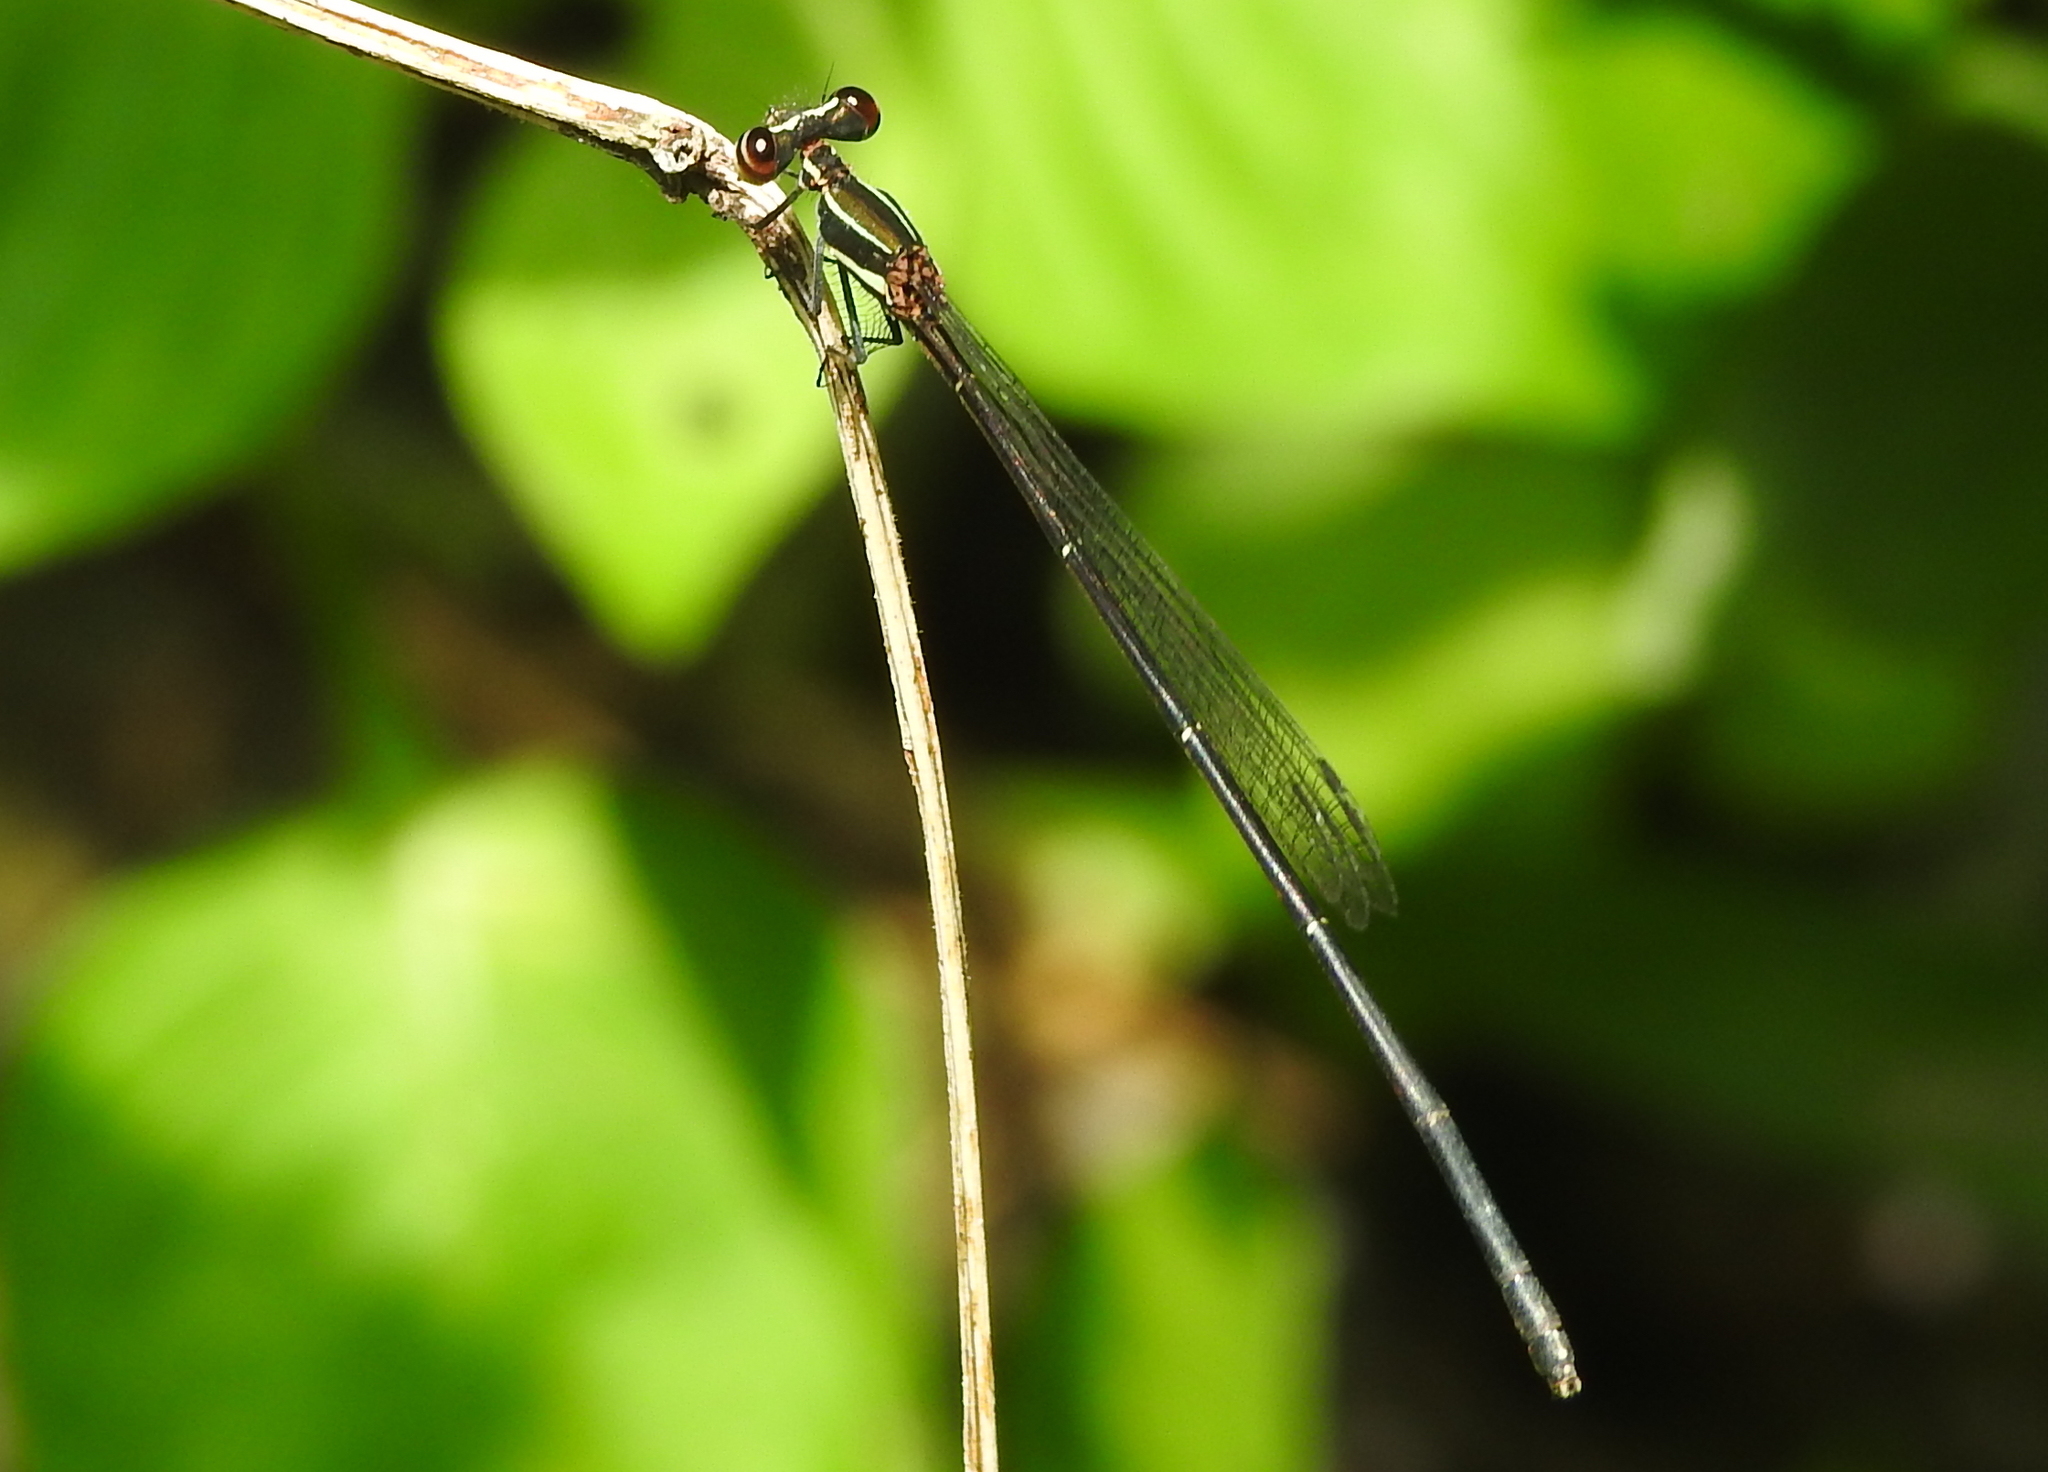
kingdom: Animalia
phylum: Arthropoda
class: Insecta
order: Odonata
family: Platycnemididae
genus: Prodasineura
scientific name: Prodasineura autumnalis
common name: Black threadtail
